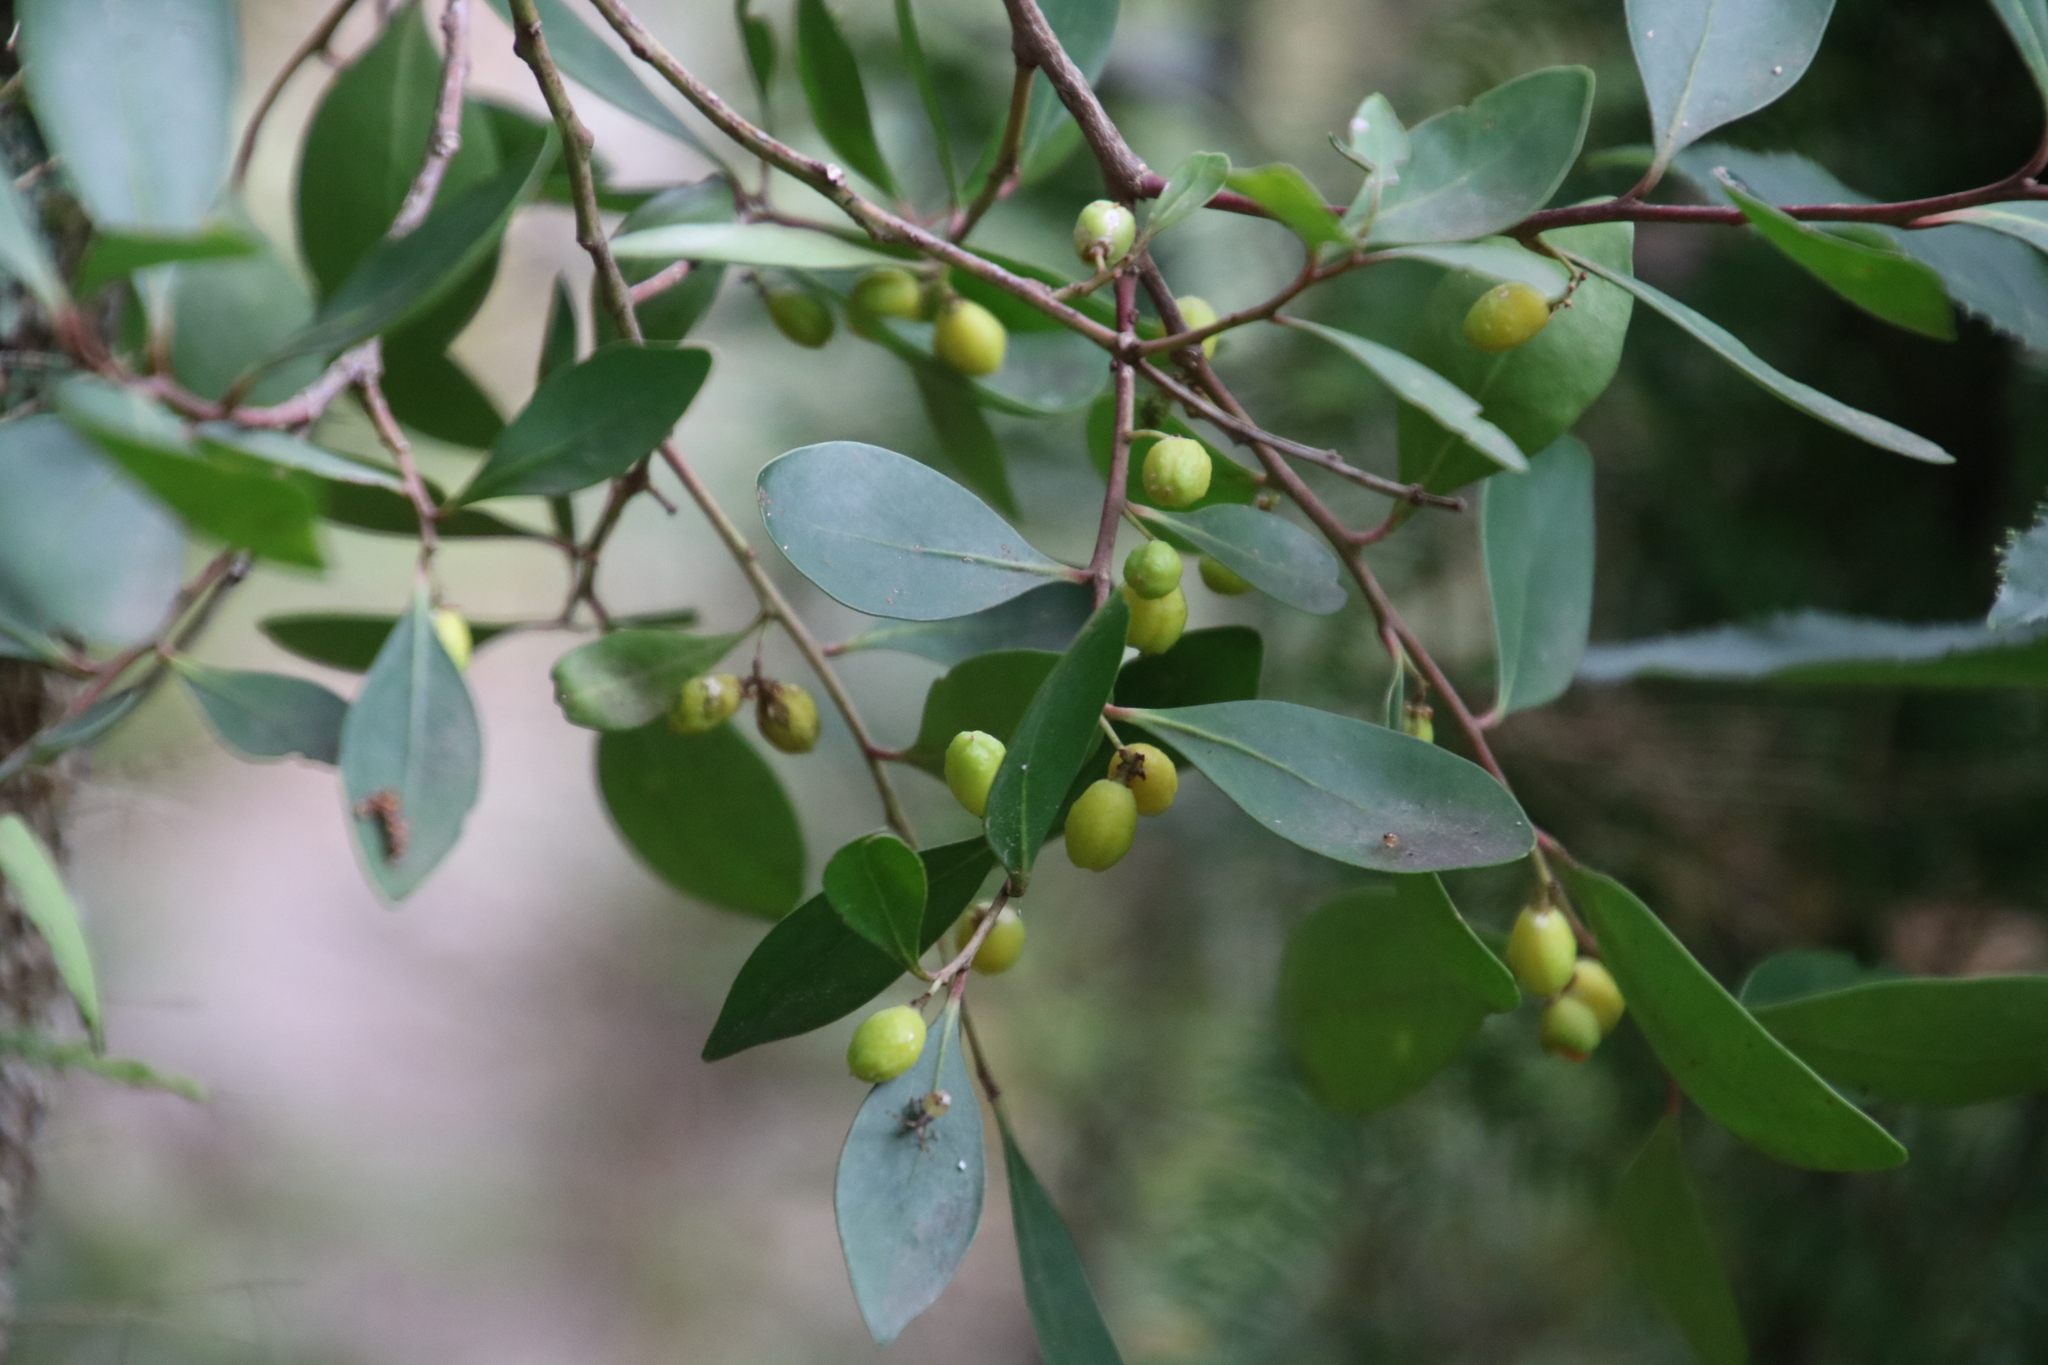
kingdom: Plantae
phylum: Tracheophyta
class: Magnoliopsida
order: Celastrales
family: Celastraceae
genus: Gymnosporia
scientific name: Gymnosporia laurina
